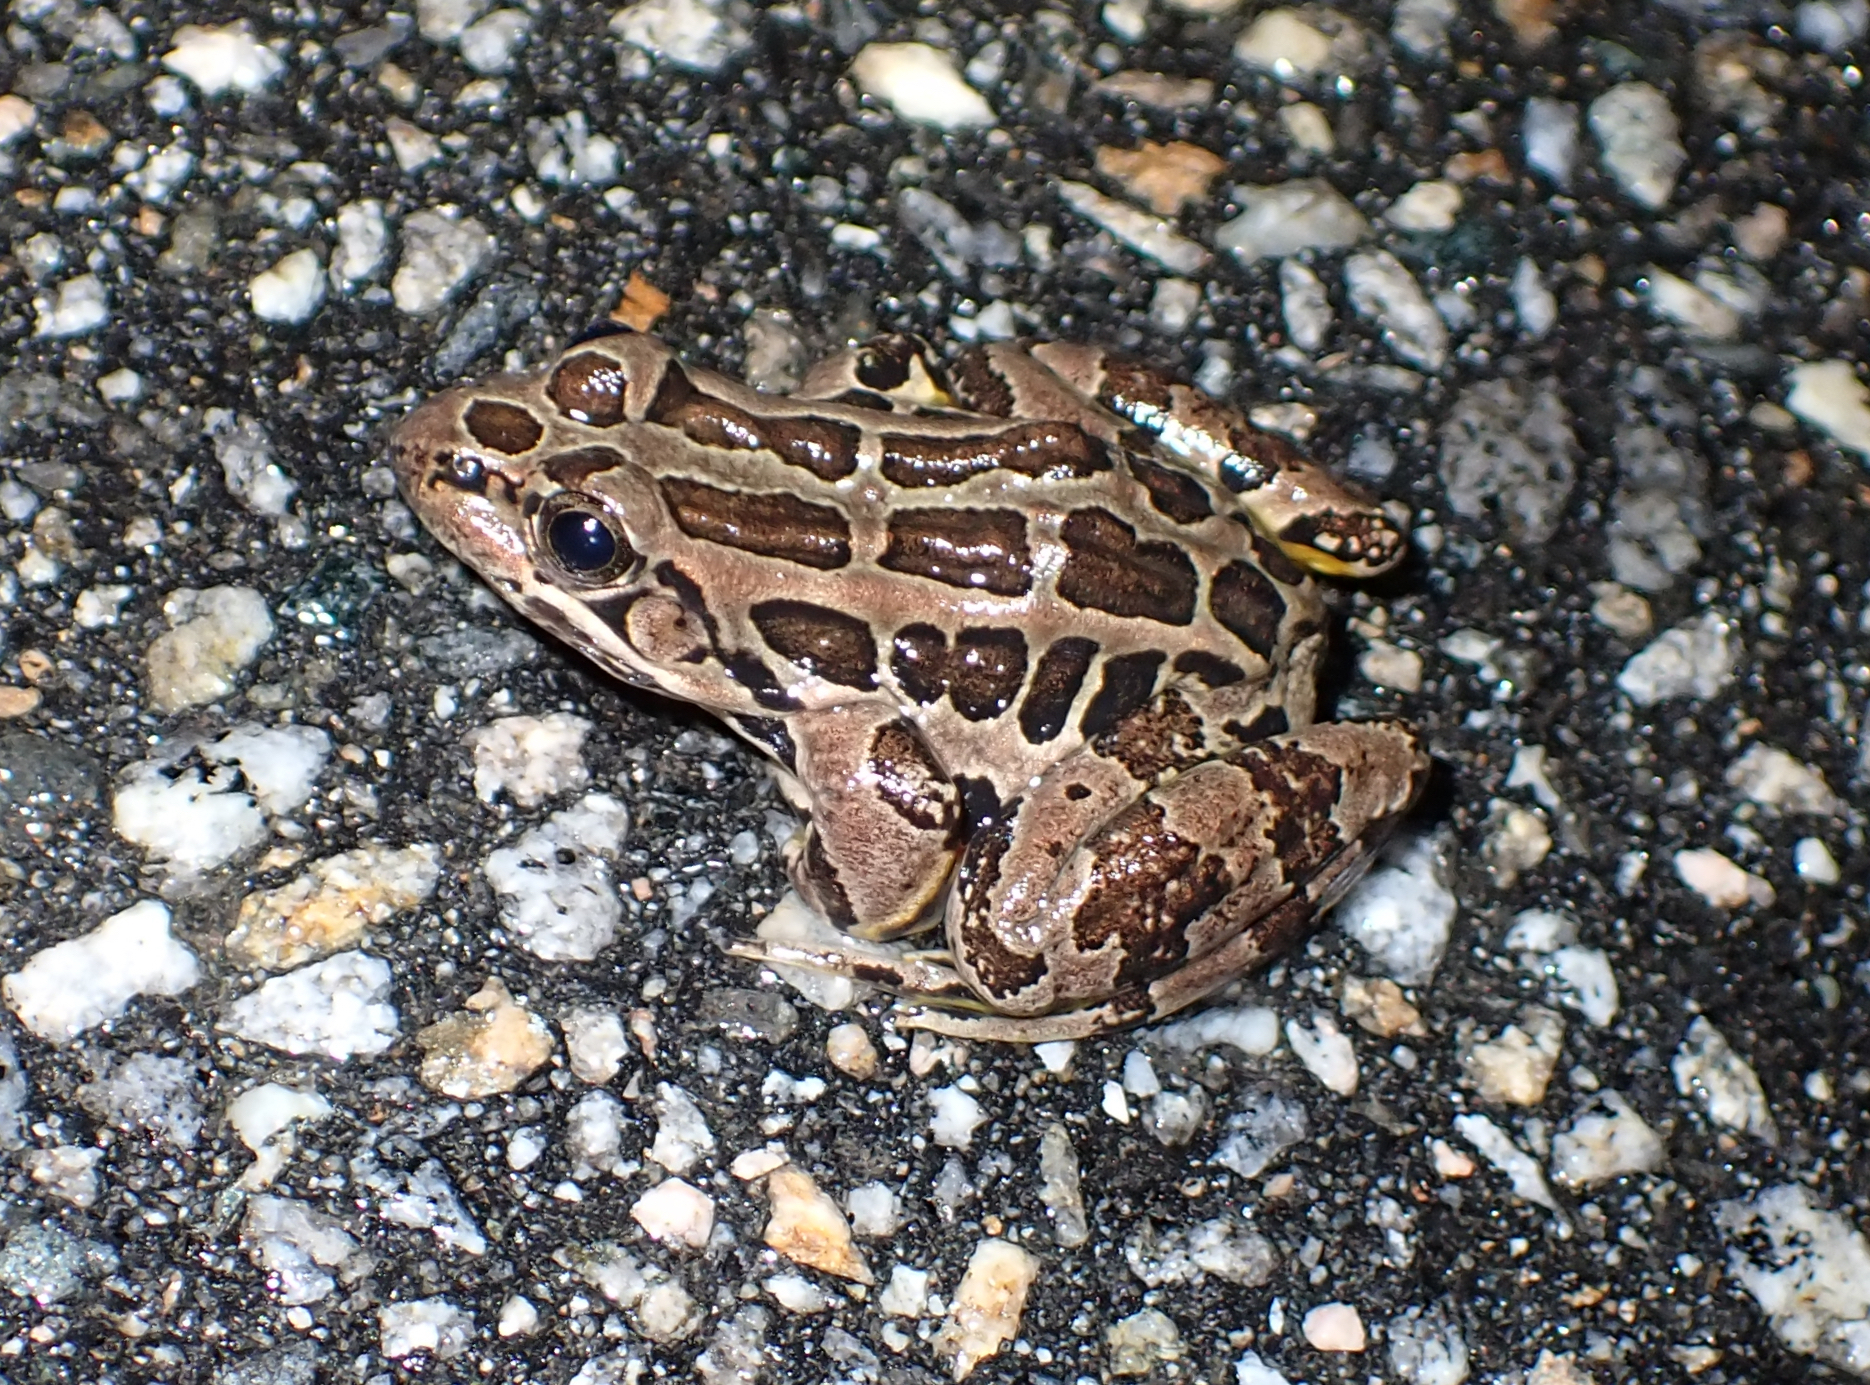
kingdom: Animalia
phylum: Chordata
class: Amphibia
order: Anura
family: Ranidae
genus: Lithobates
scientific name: Lithobates palustris
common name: Pickerel frog
